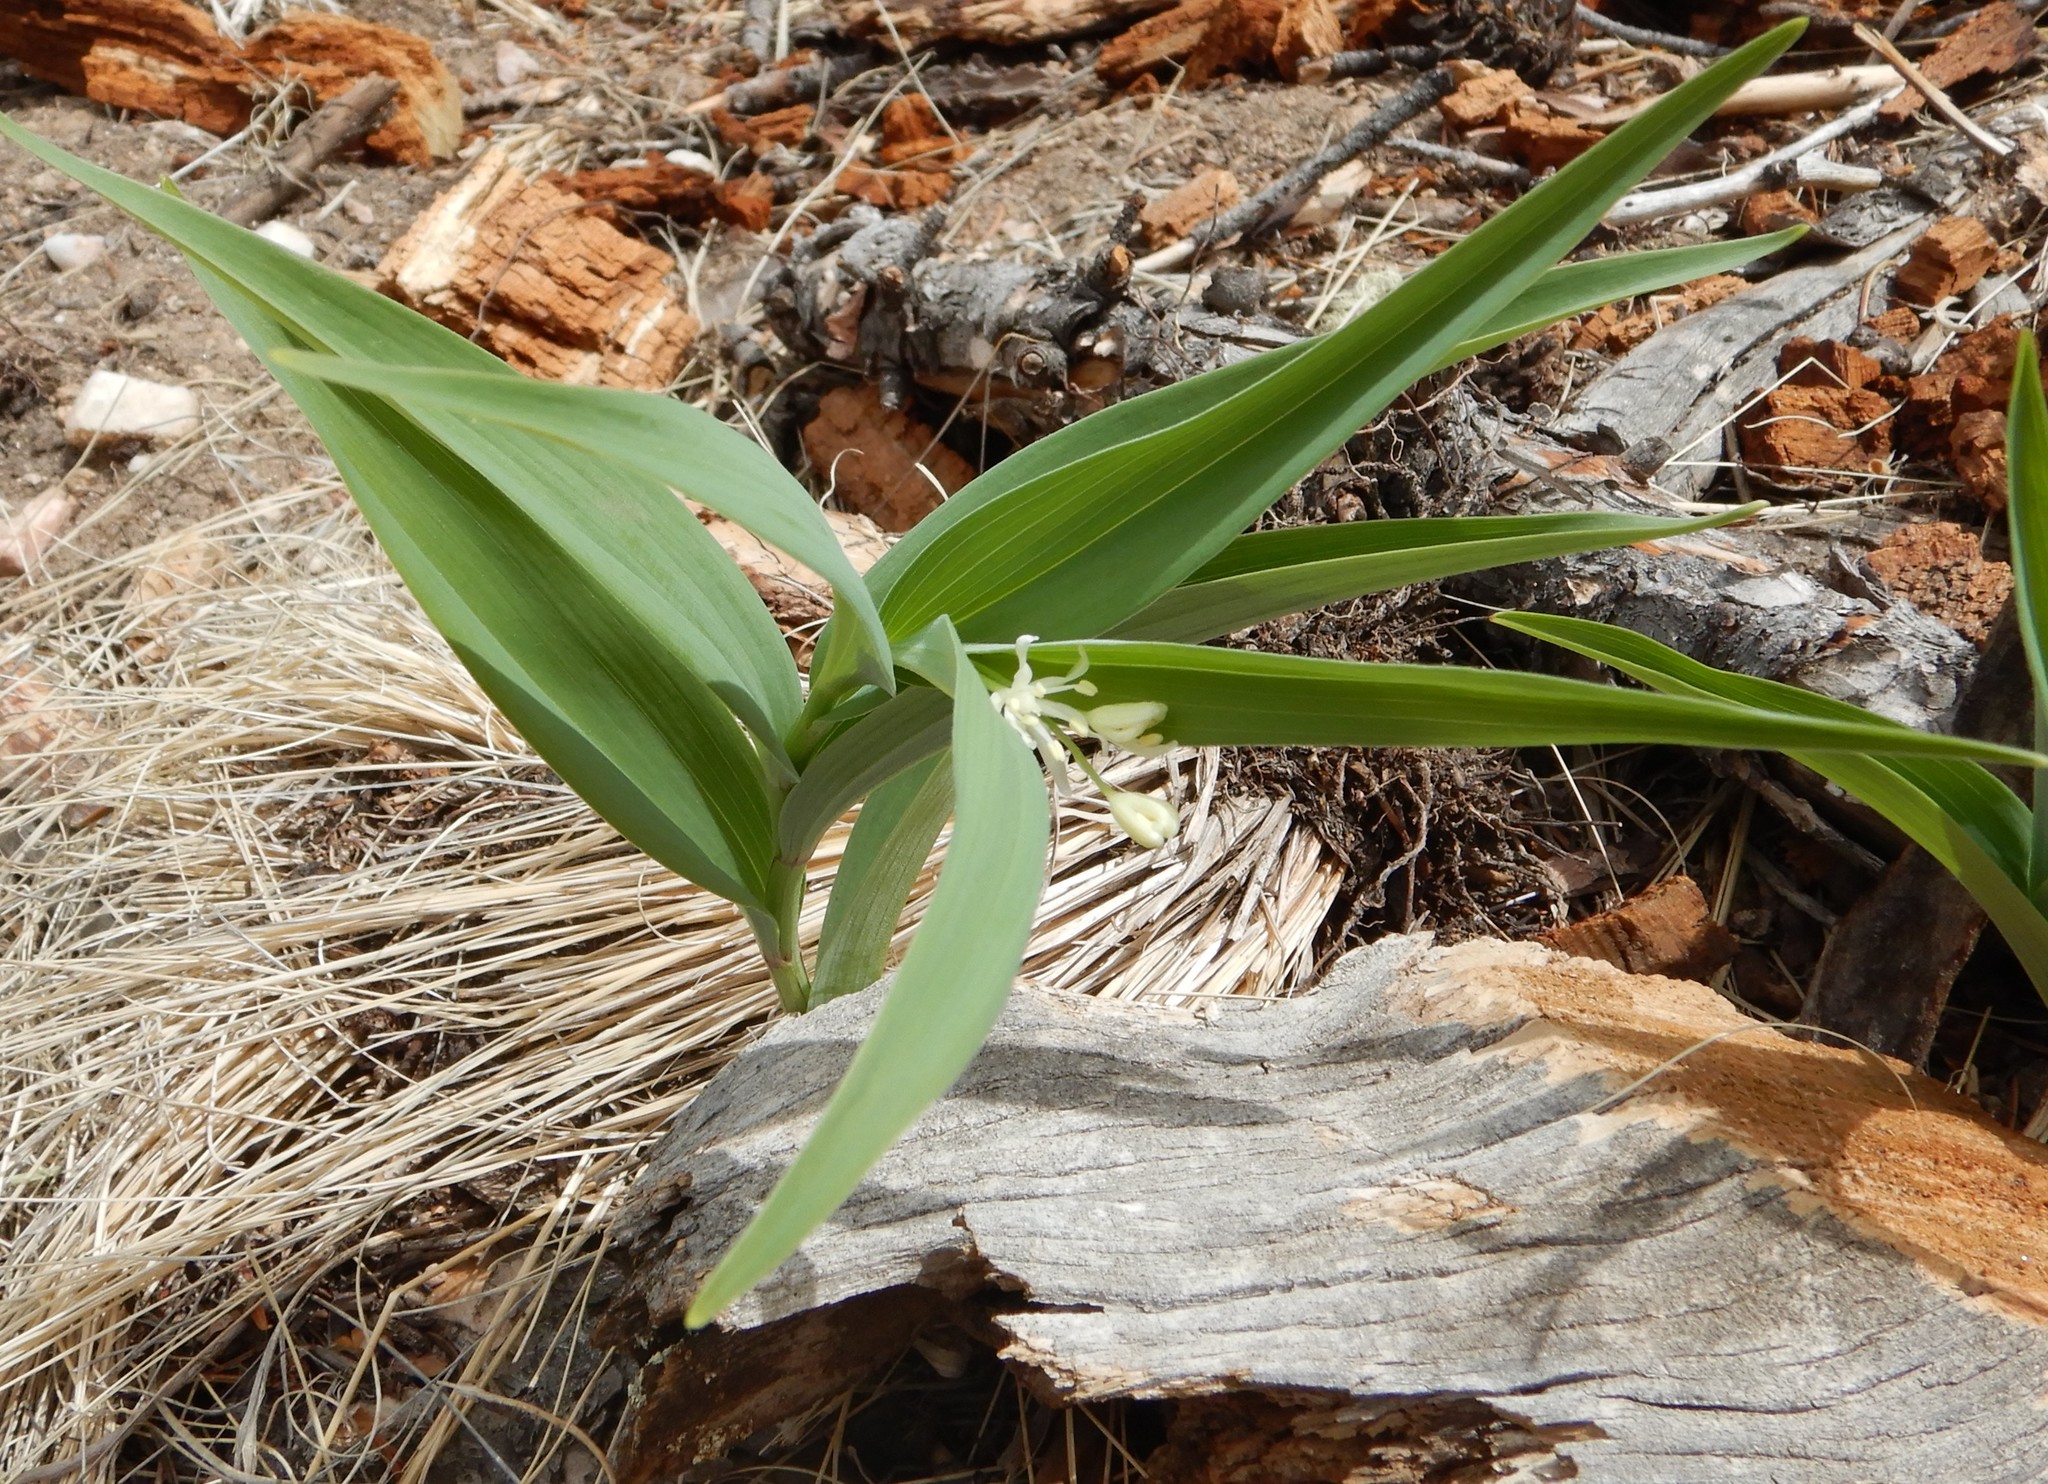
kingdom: Plantae
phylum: Tracheophyta
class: Liliopsida
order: Asparagales
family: Asparagaceae
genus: Maianthemum
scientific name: Maianthemum stellatum
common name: Little false solomon's seal
